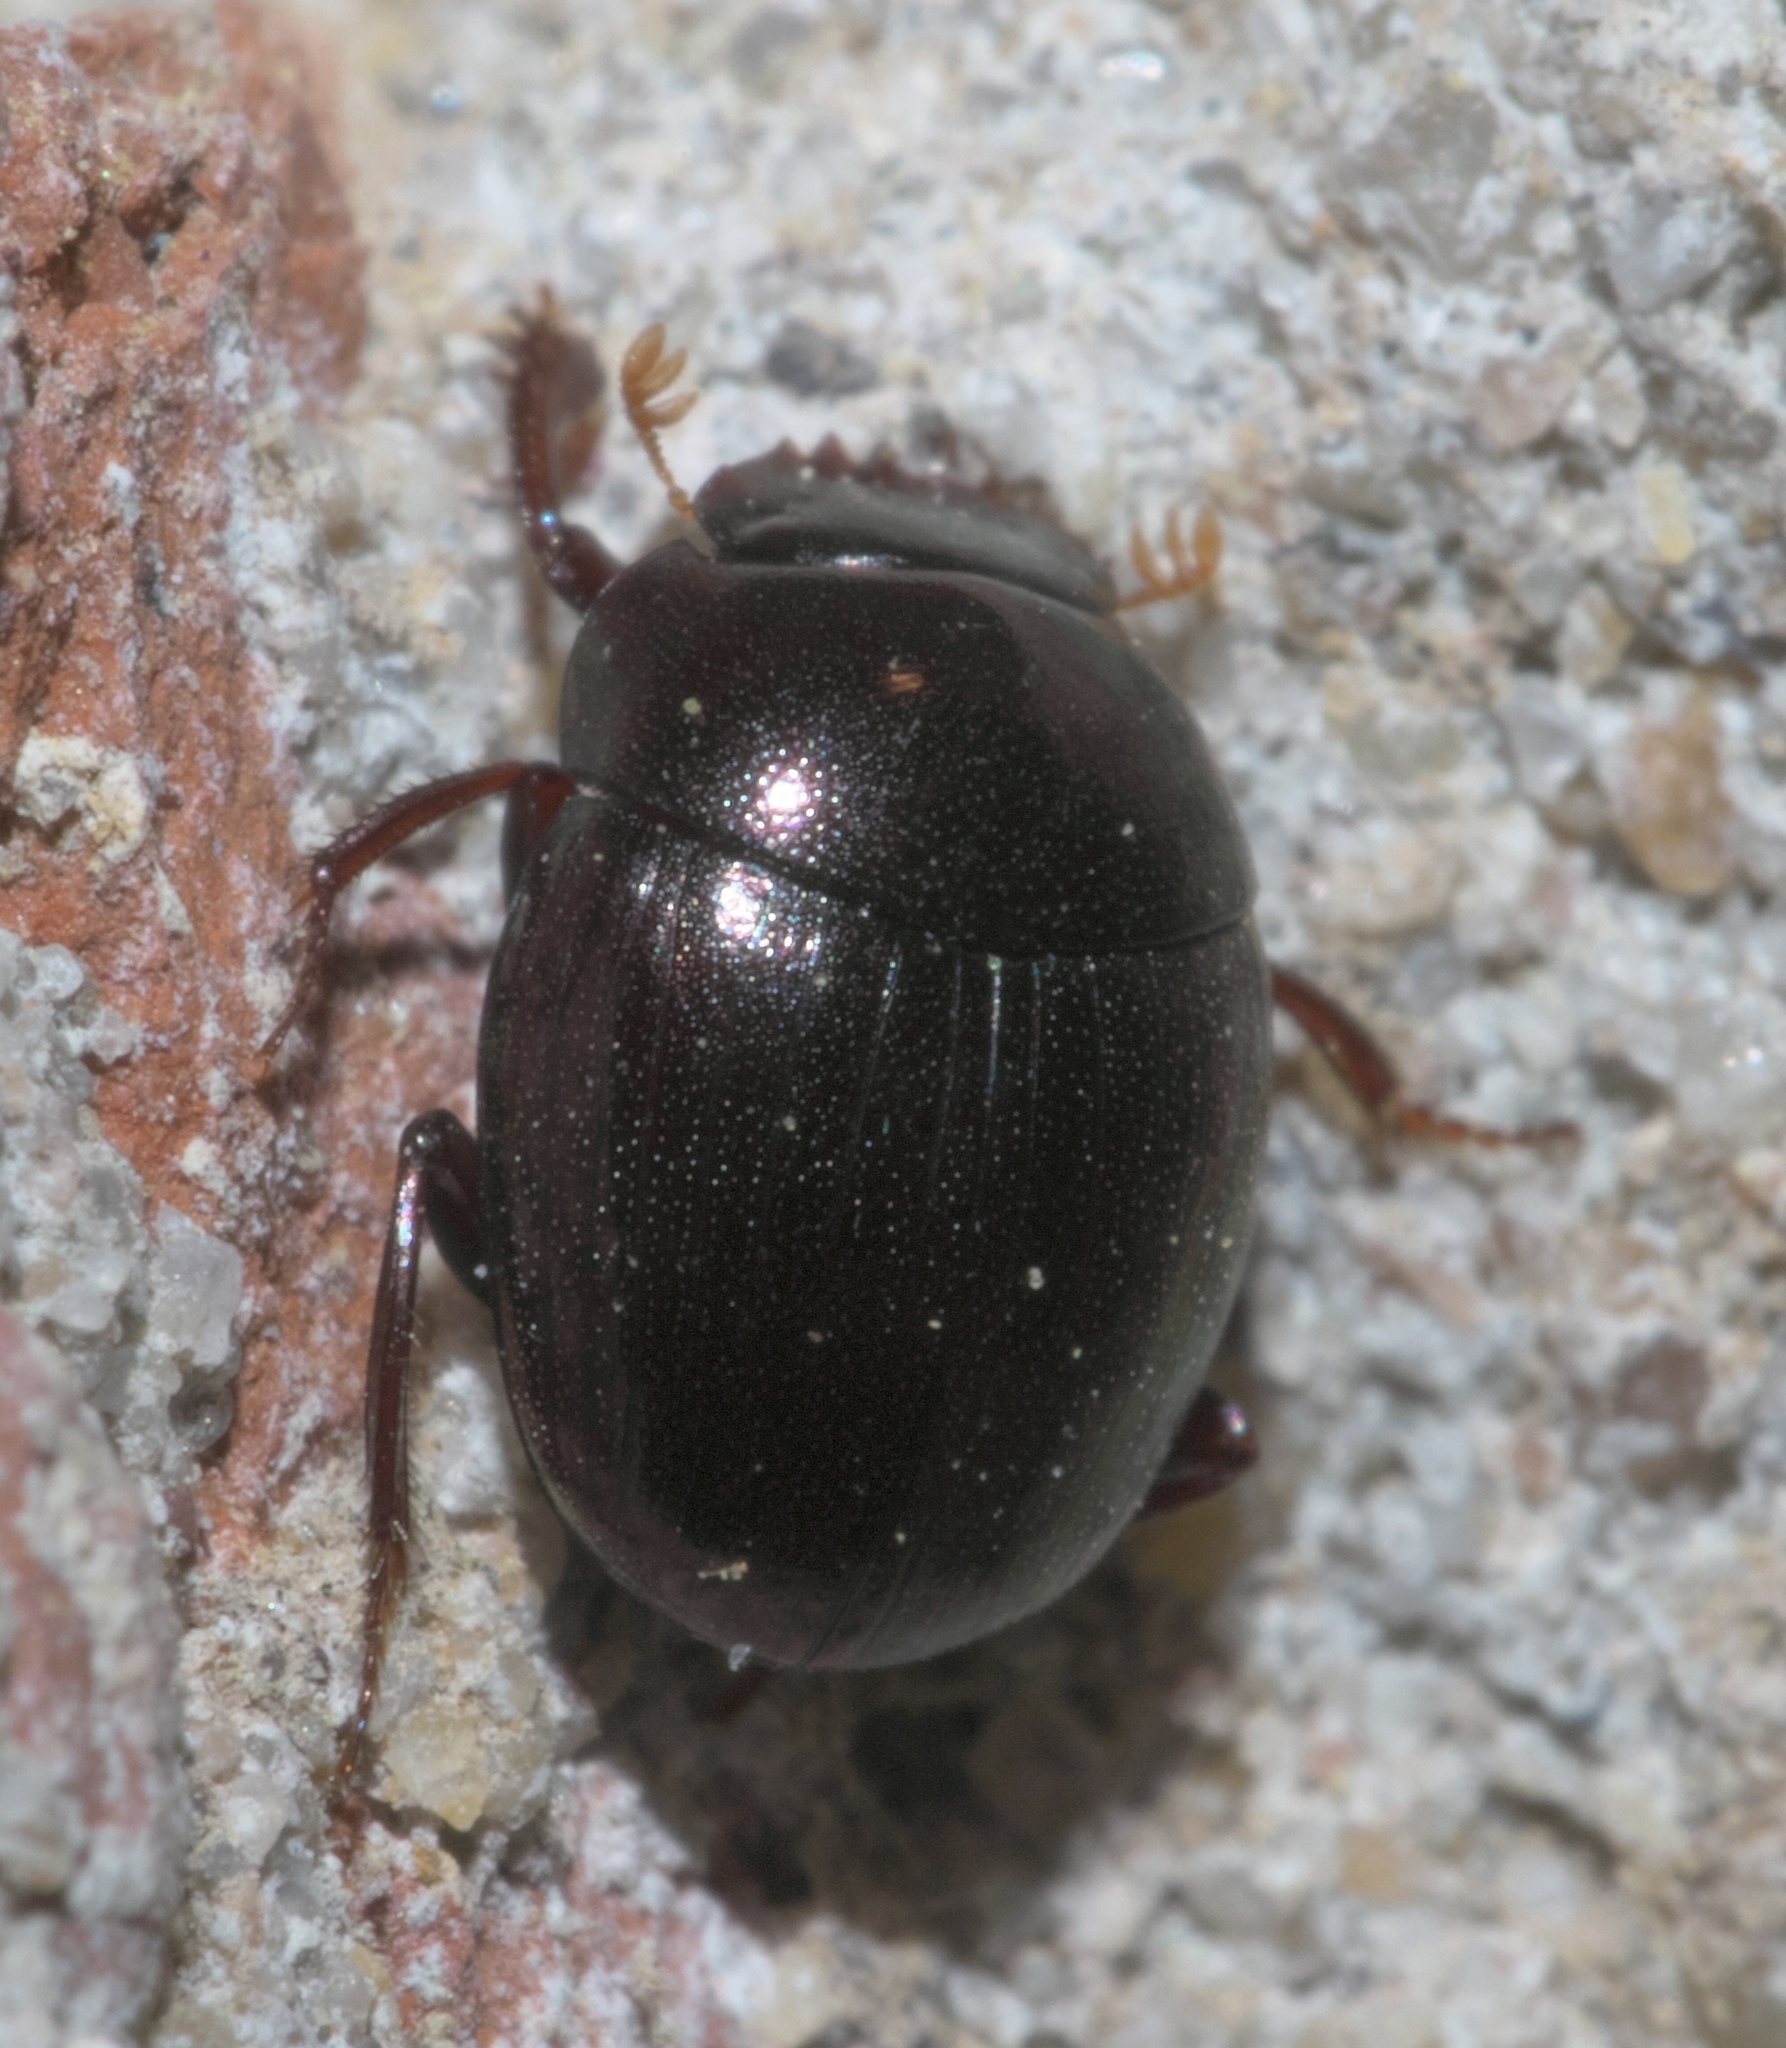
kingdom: Animalia
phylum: Arthropoda
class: Insecta
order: Coleoptera
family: Scarabaeidae
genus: Pseudocanthon
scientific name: Pseudocanthon perplexus
